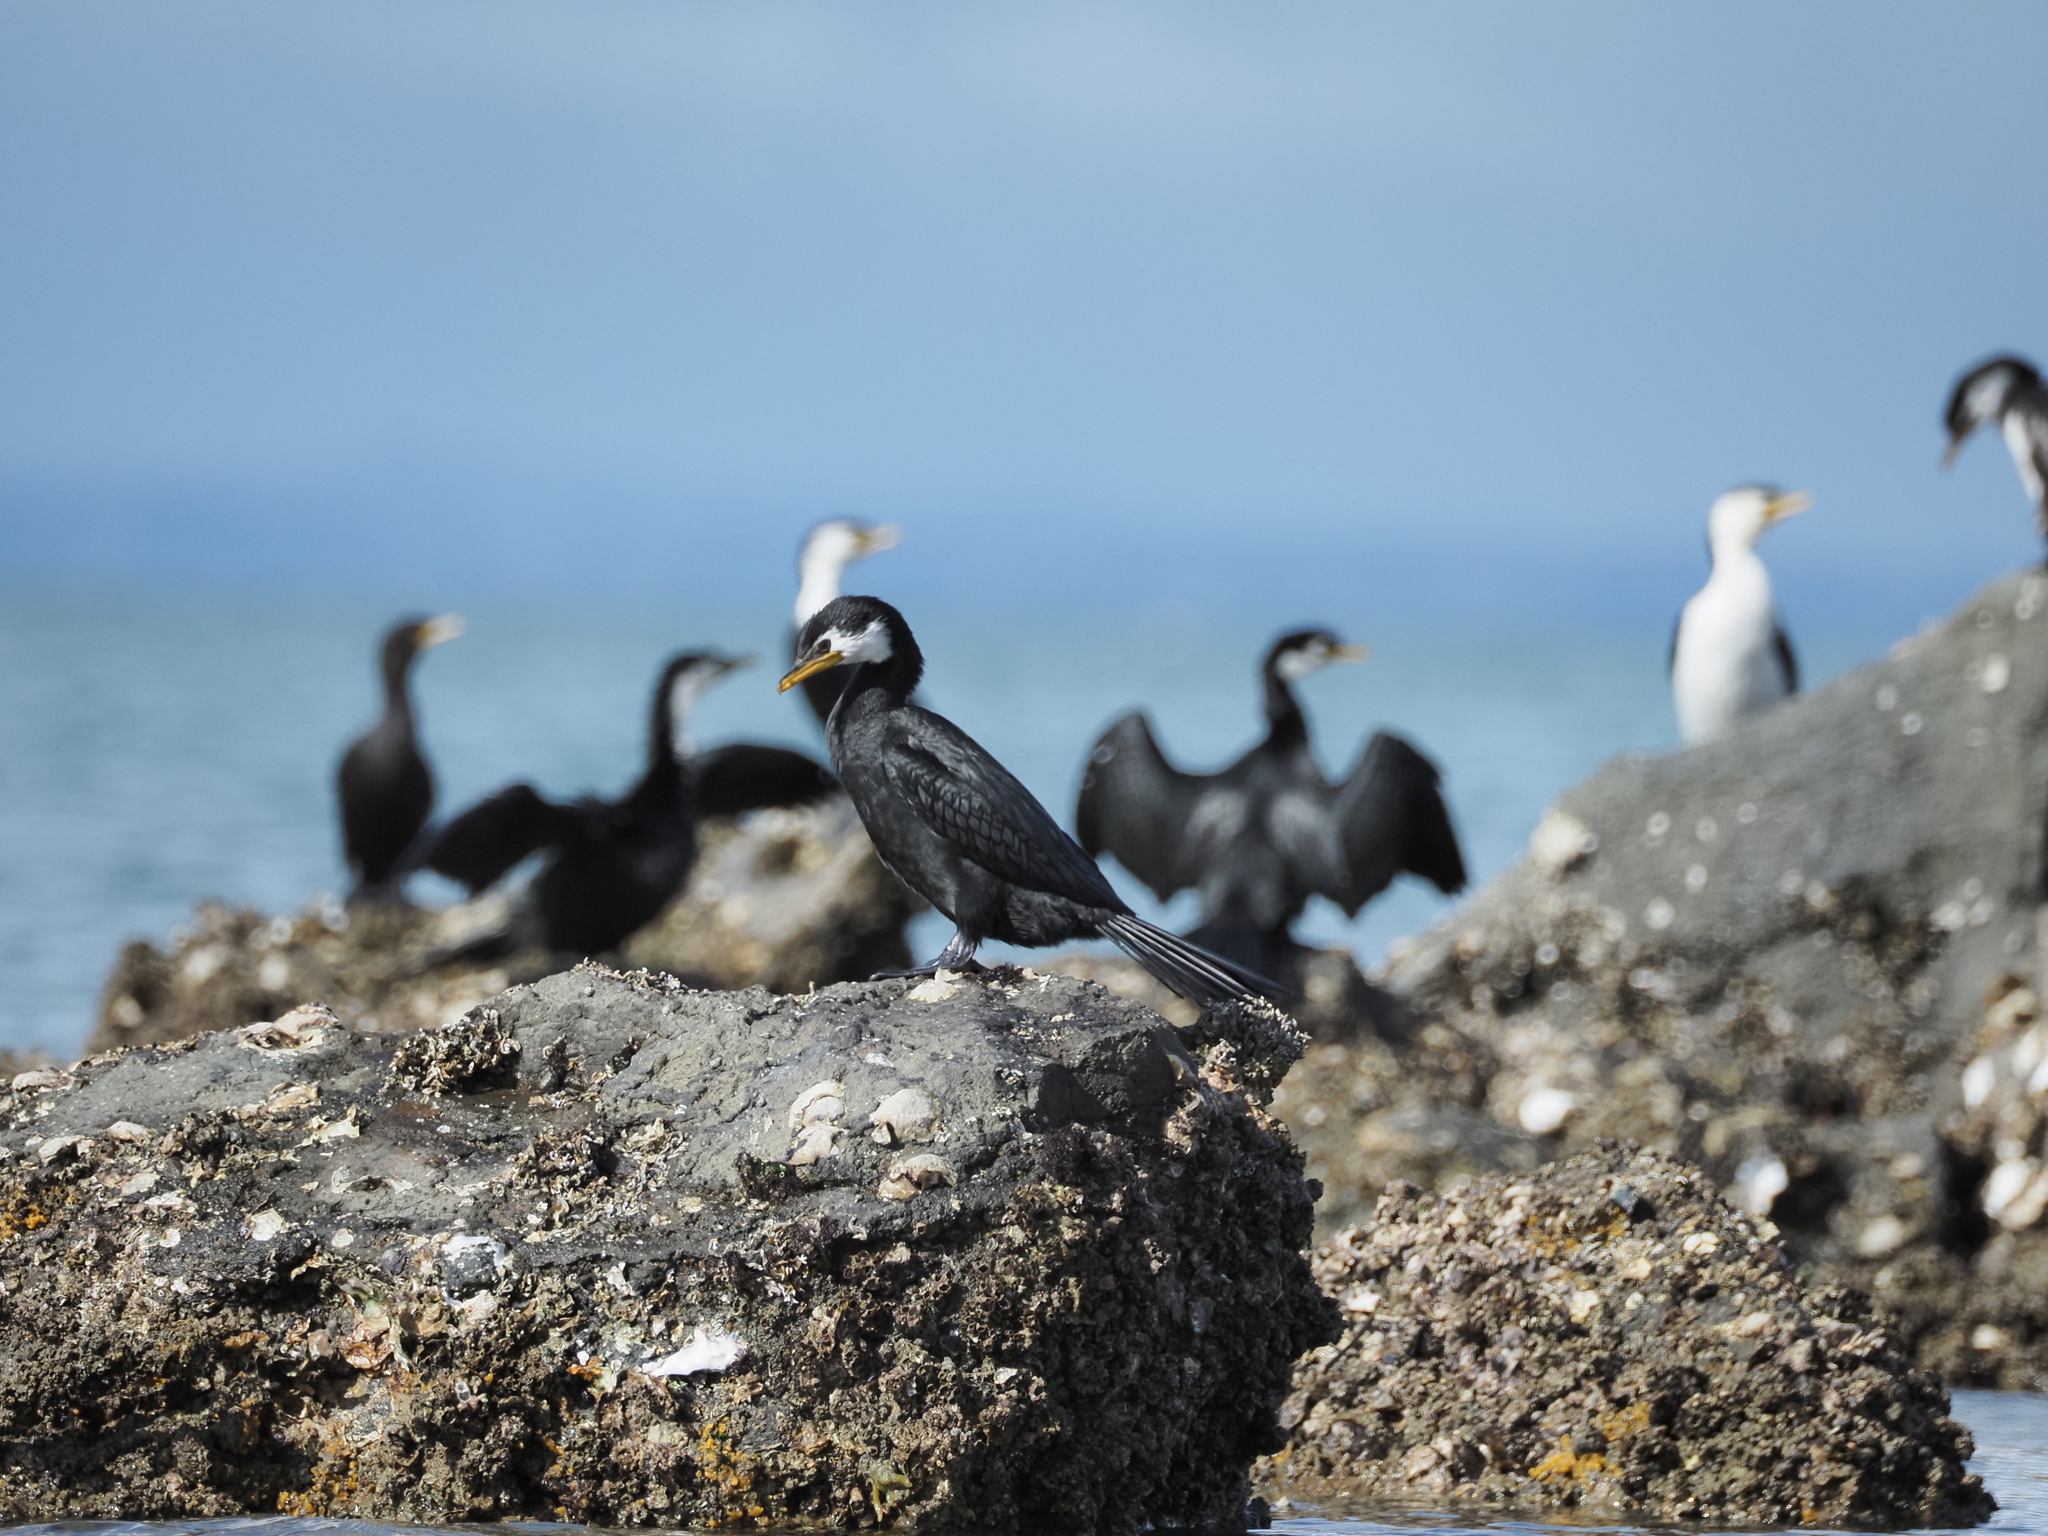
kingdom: Animalia
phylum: Chordata
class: Aves
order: Suliformes
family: Phalacrocoracidae
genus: Microcarbo
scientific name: Microcarbo melanoleucos
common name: Little pied cormorant
